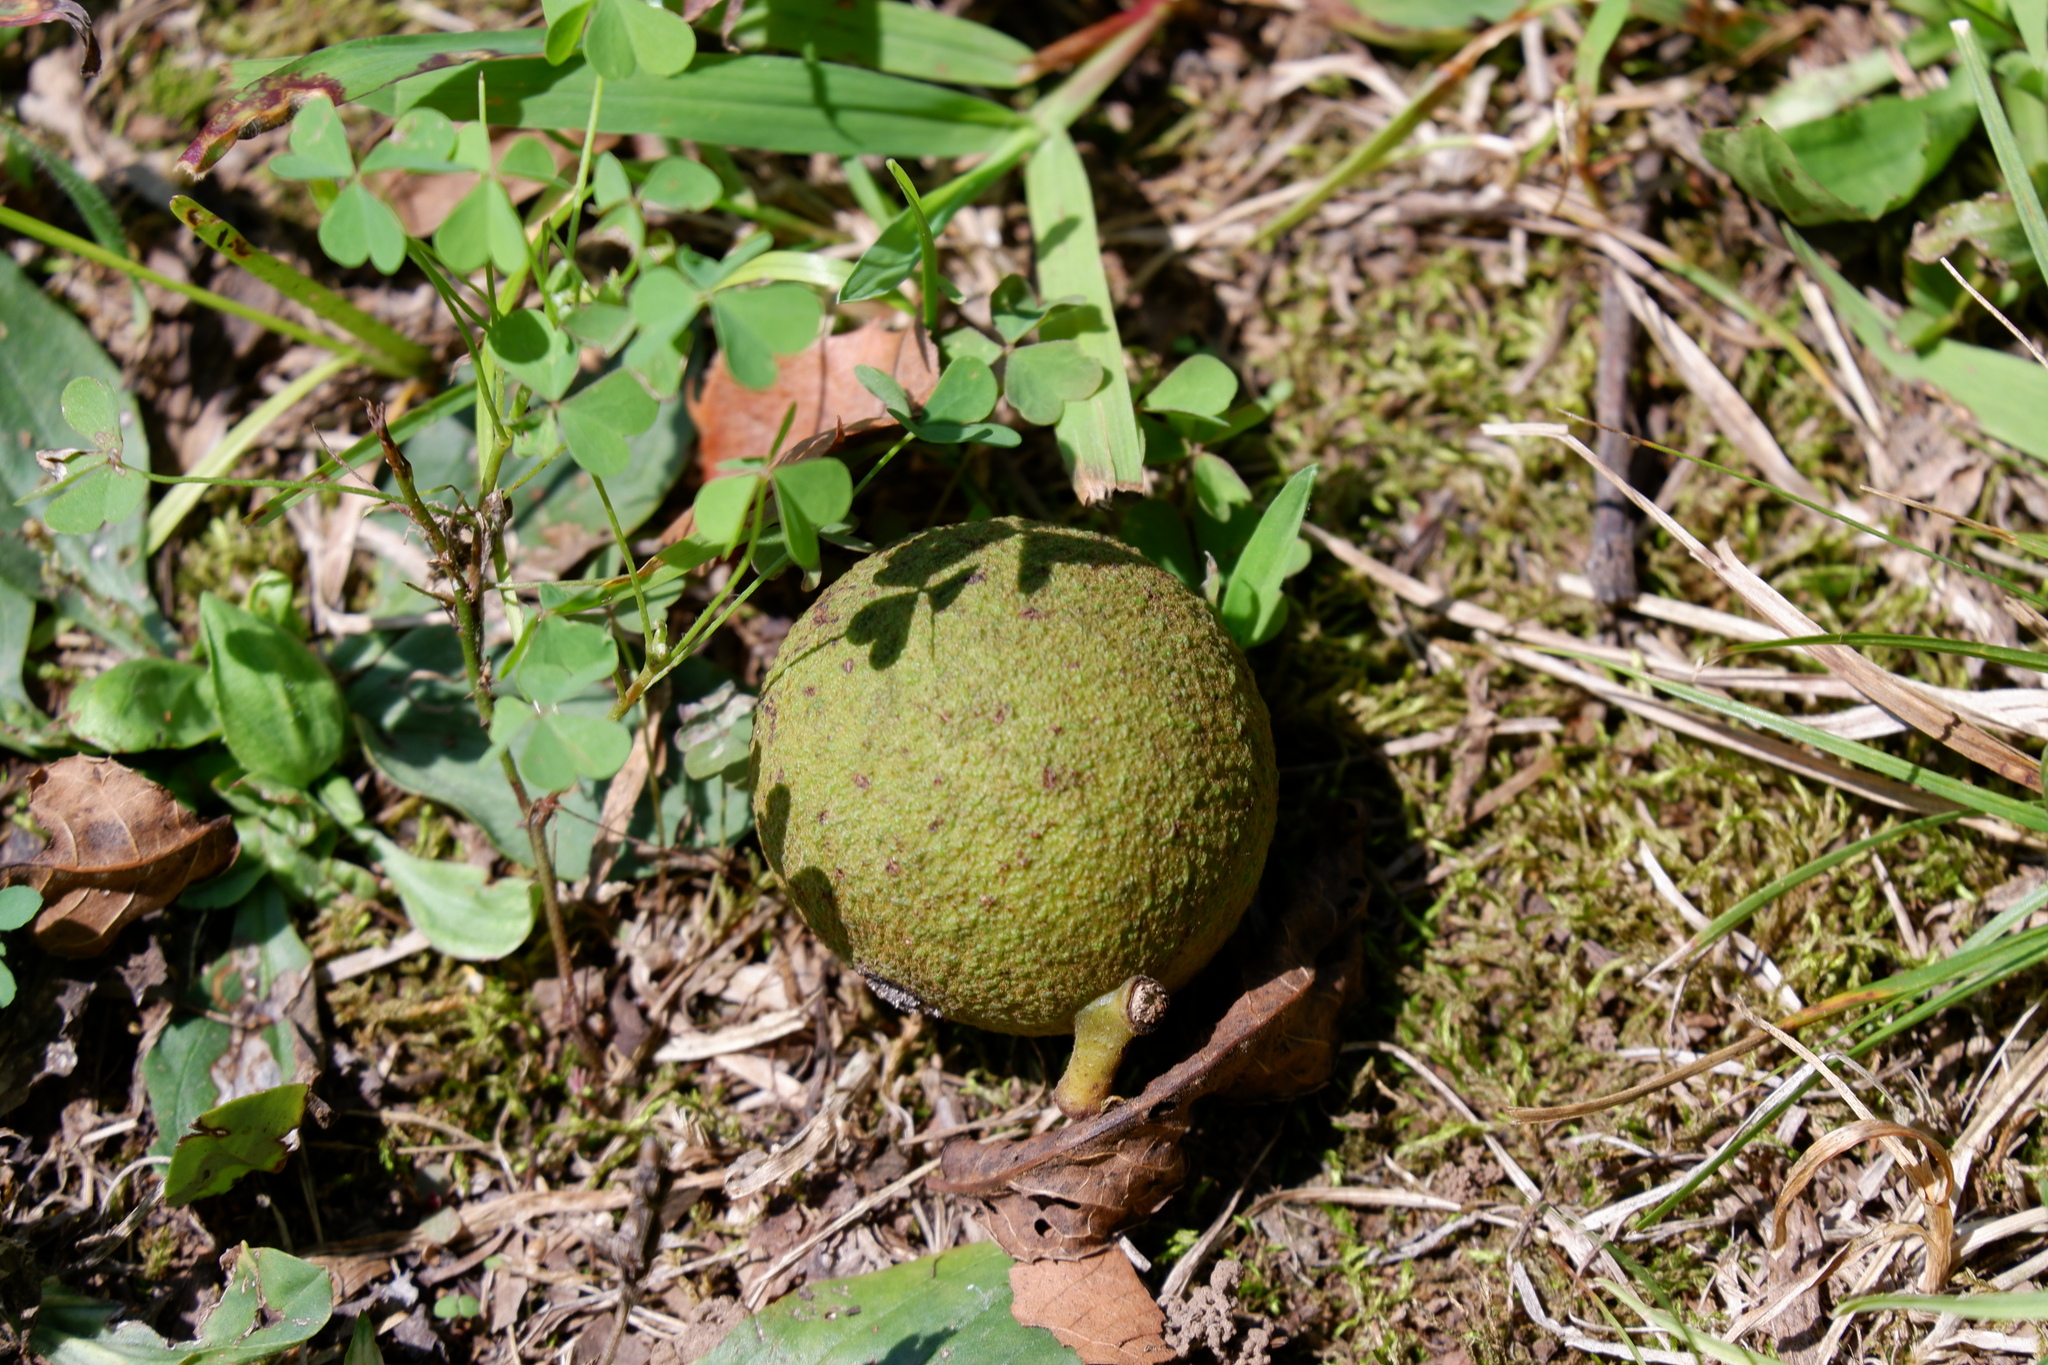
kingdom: Plantae
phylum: Tracheophyta
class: Magnoliopsida
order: Fagales
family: Juglandaceae
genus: Juglans
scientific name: Juglans nigra
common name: Black walnut
